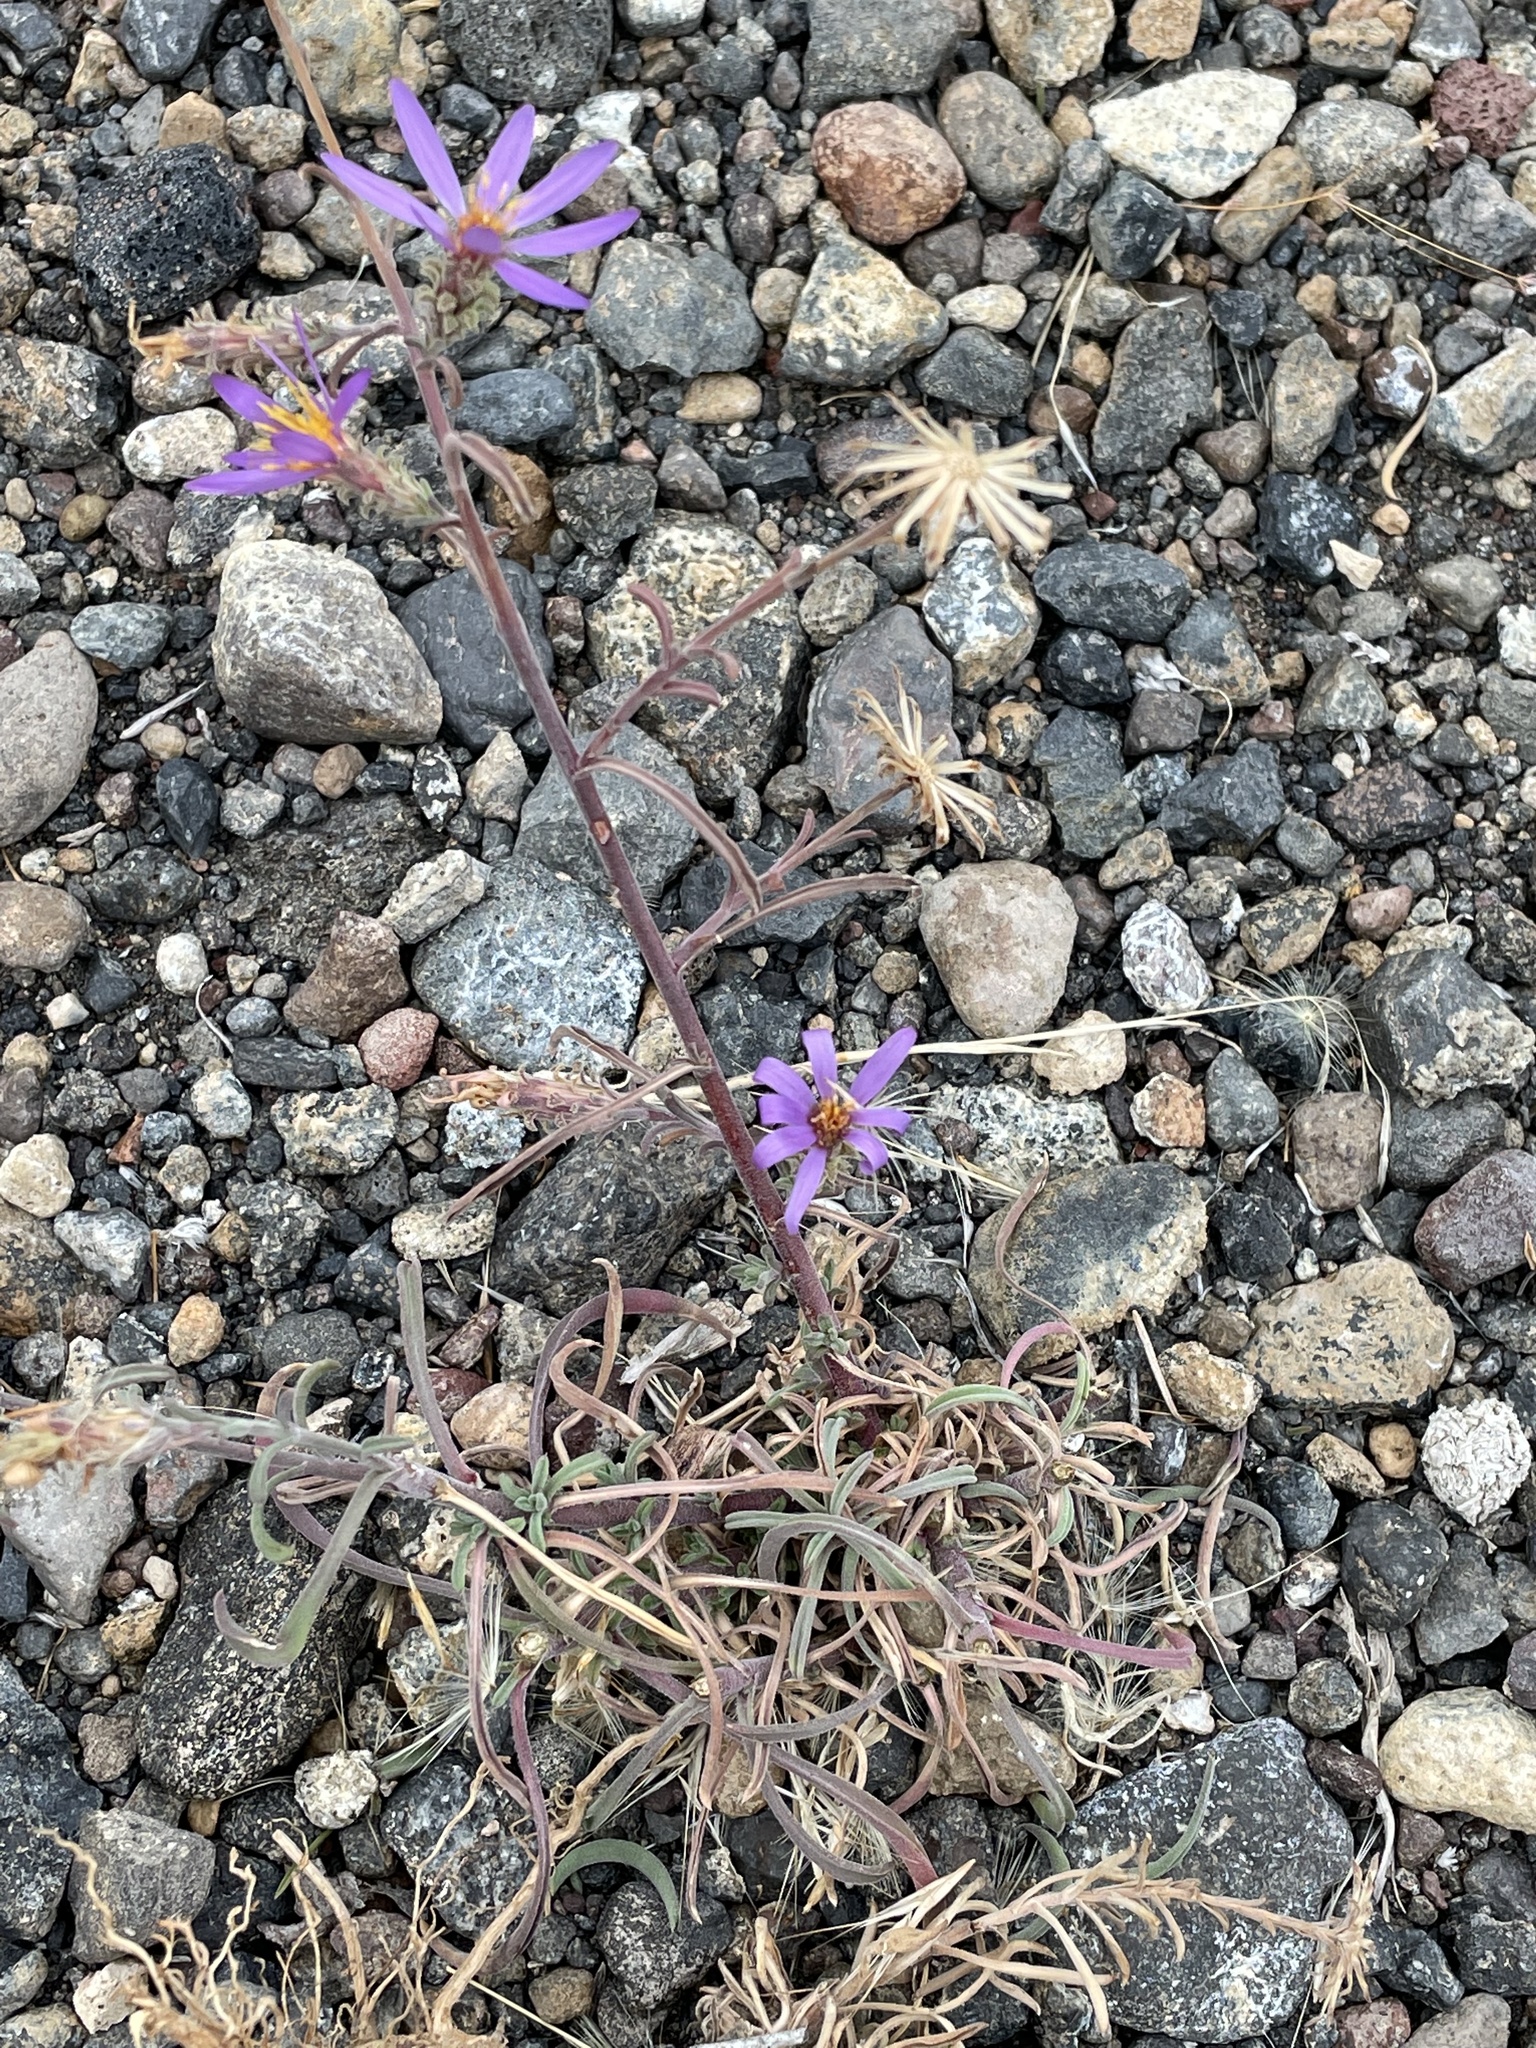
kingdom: Plantae
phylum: Tracheophyta
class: Magnoliopsida
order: Asterales
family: Asteraceae
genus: Dieteria
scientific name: Dieteria canescens
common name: Hoary-aster
